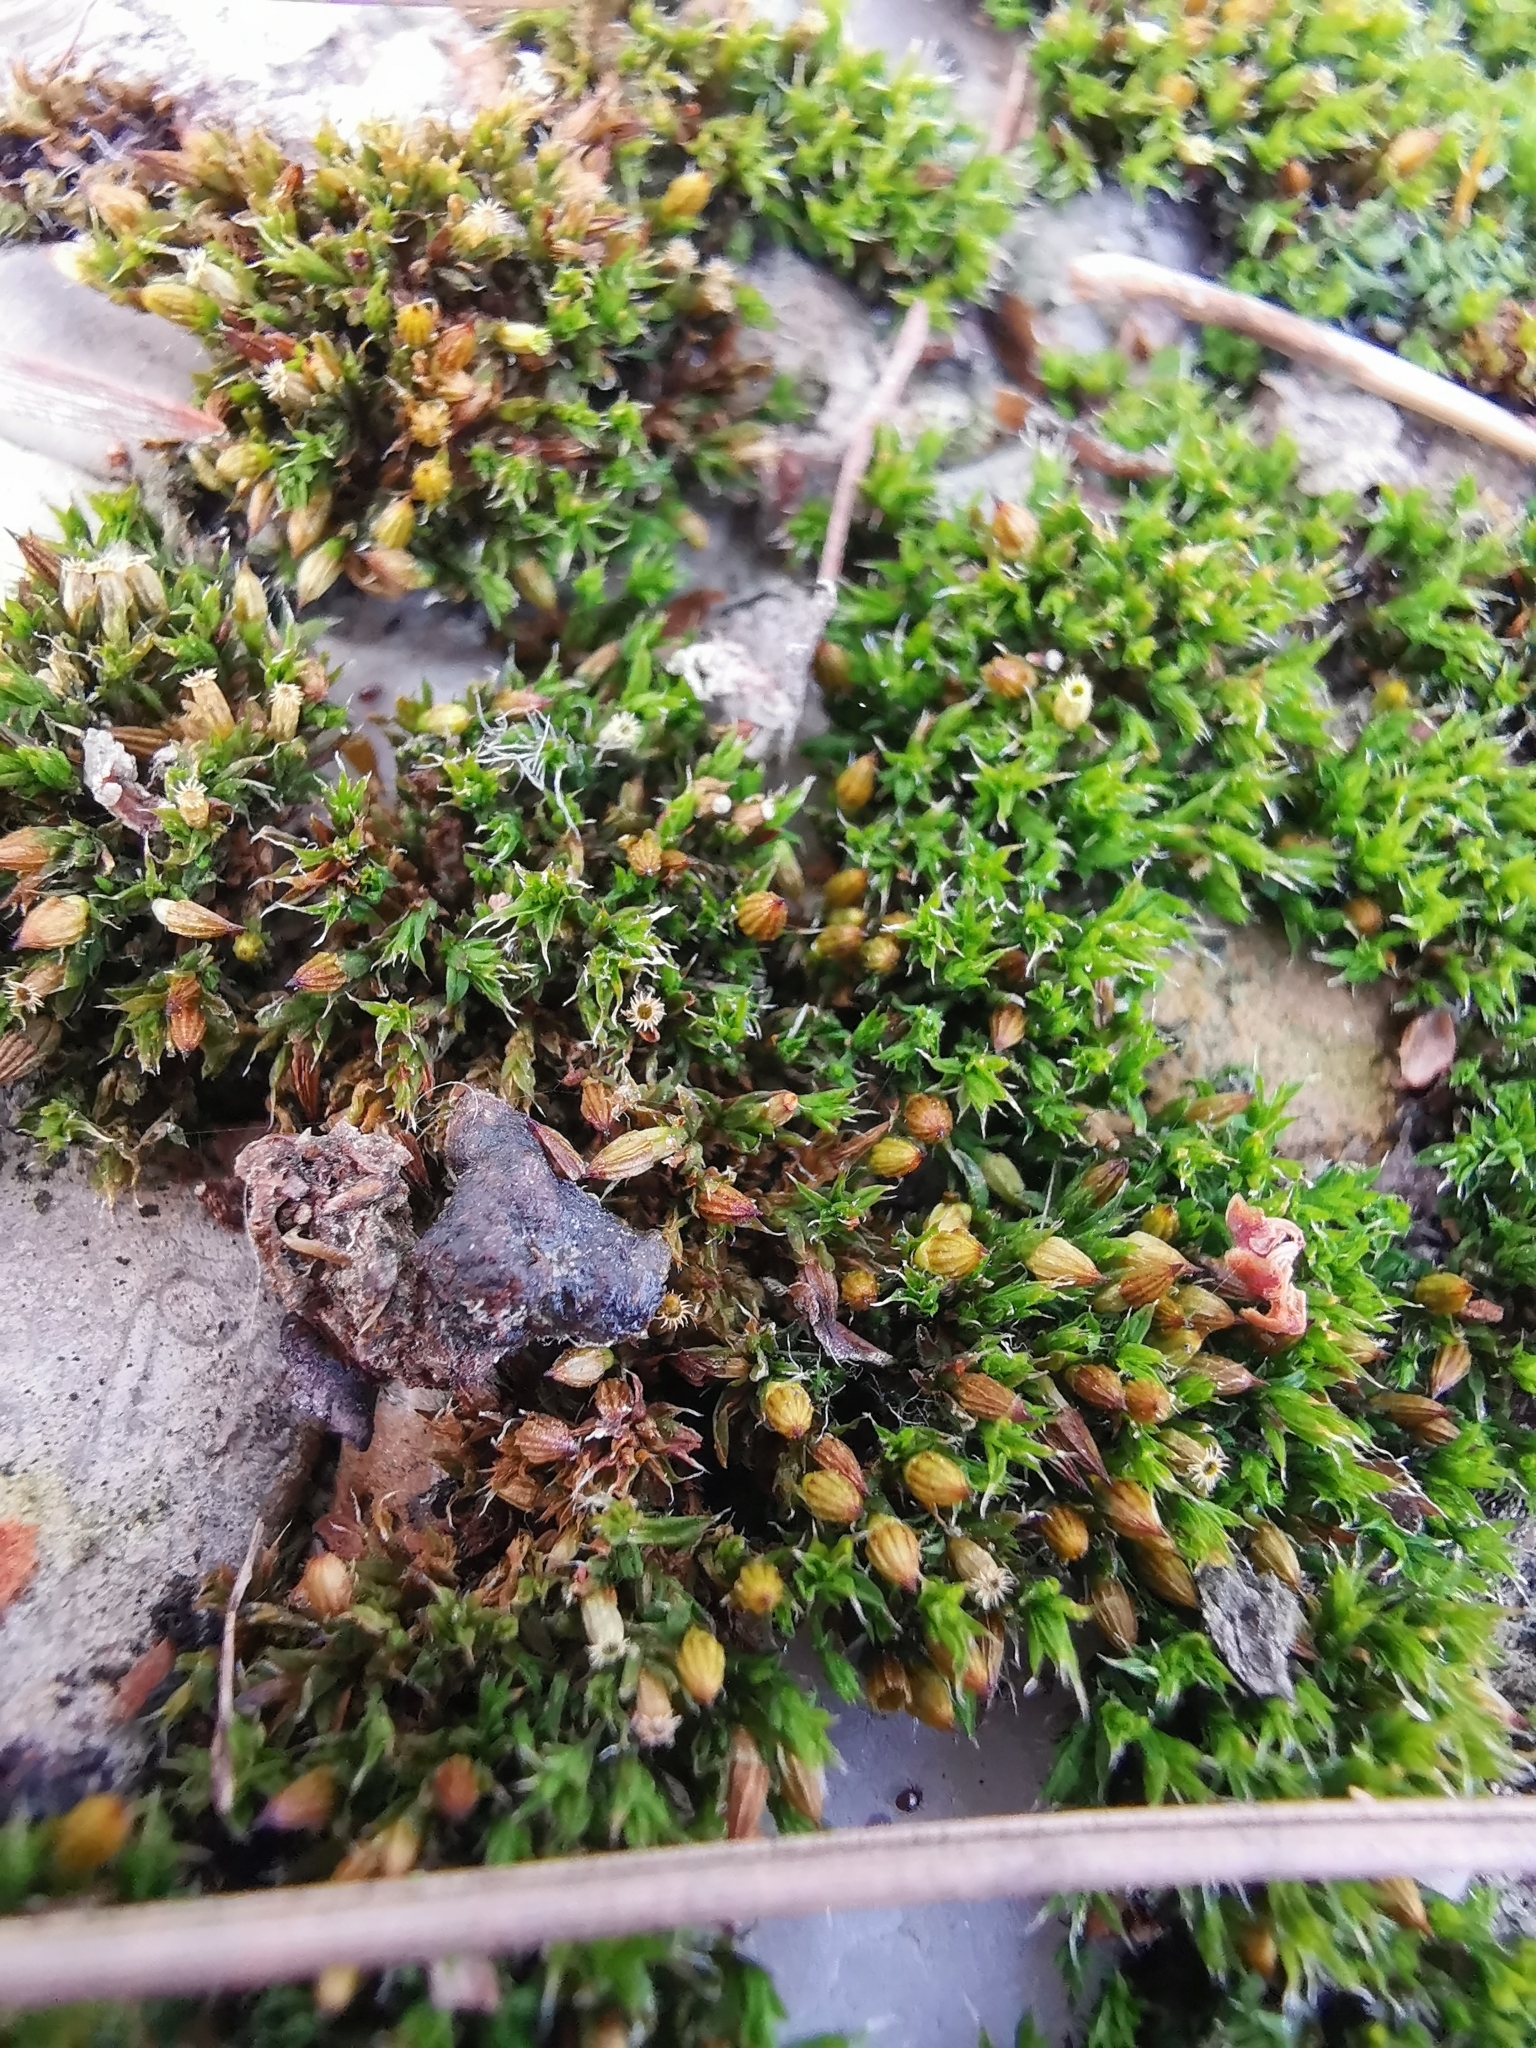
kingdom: Plantae
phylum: Bryophyta
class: Bryopsida
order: Orthotrichales
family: Orthotrichaceae
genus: Orthotrichum
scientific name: Orthotrichum diaphanum
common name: White-tipped bristle-moss
